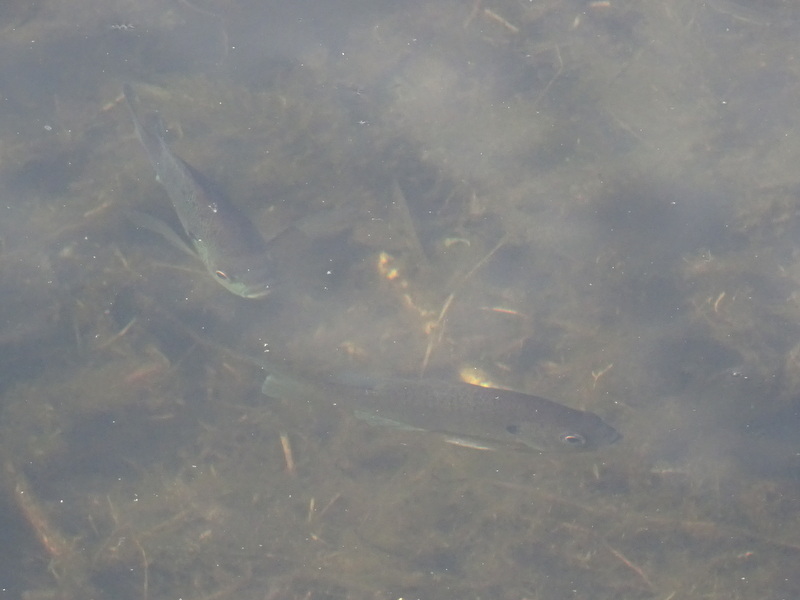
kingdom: Animalia
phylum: Chordata
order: Perciformes
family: Centrarchidae
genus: Lepomis
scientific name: Lepomis macrochirus
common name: Bluegill
